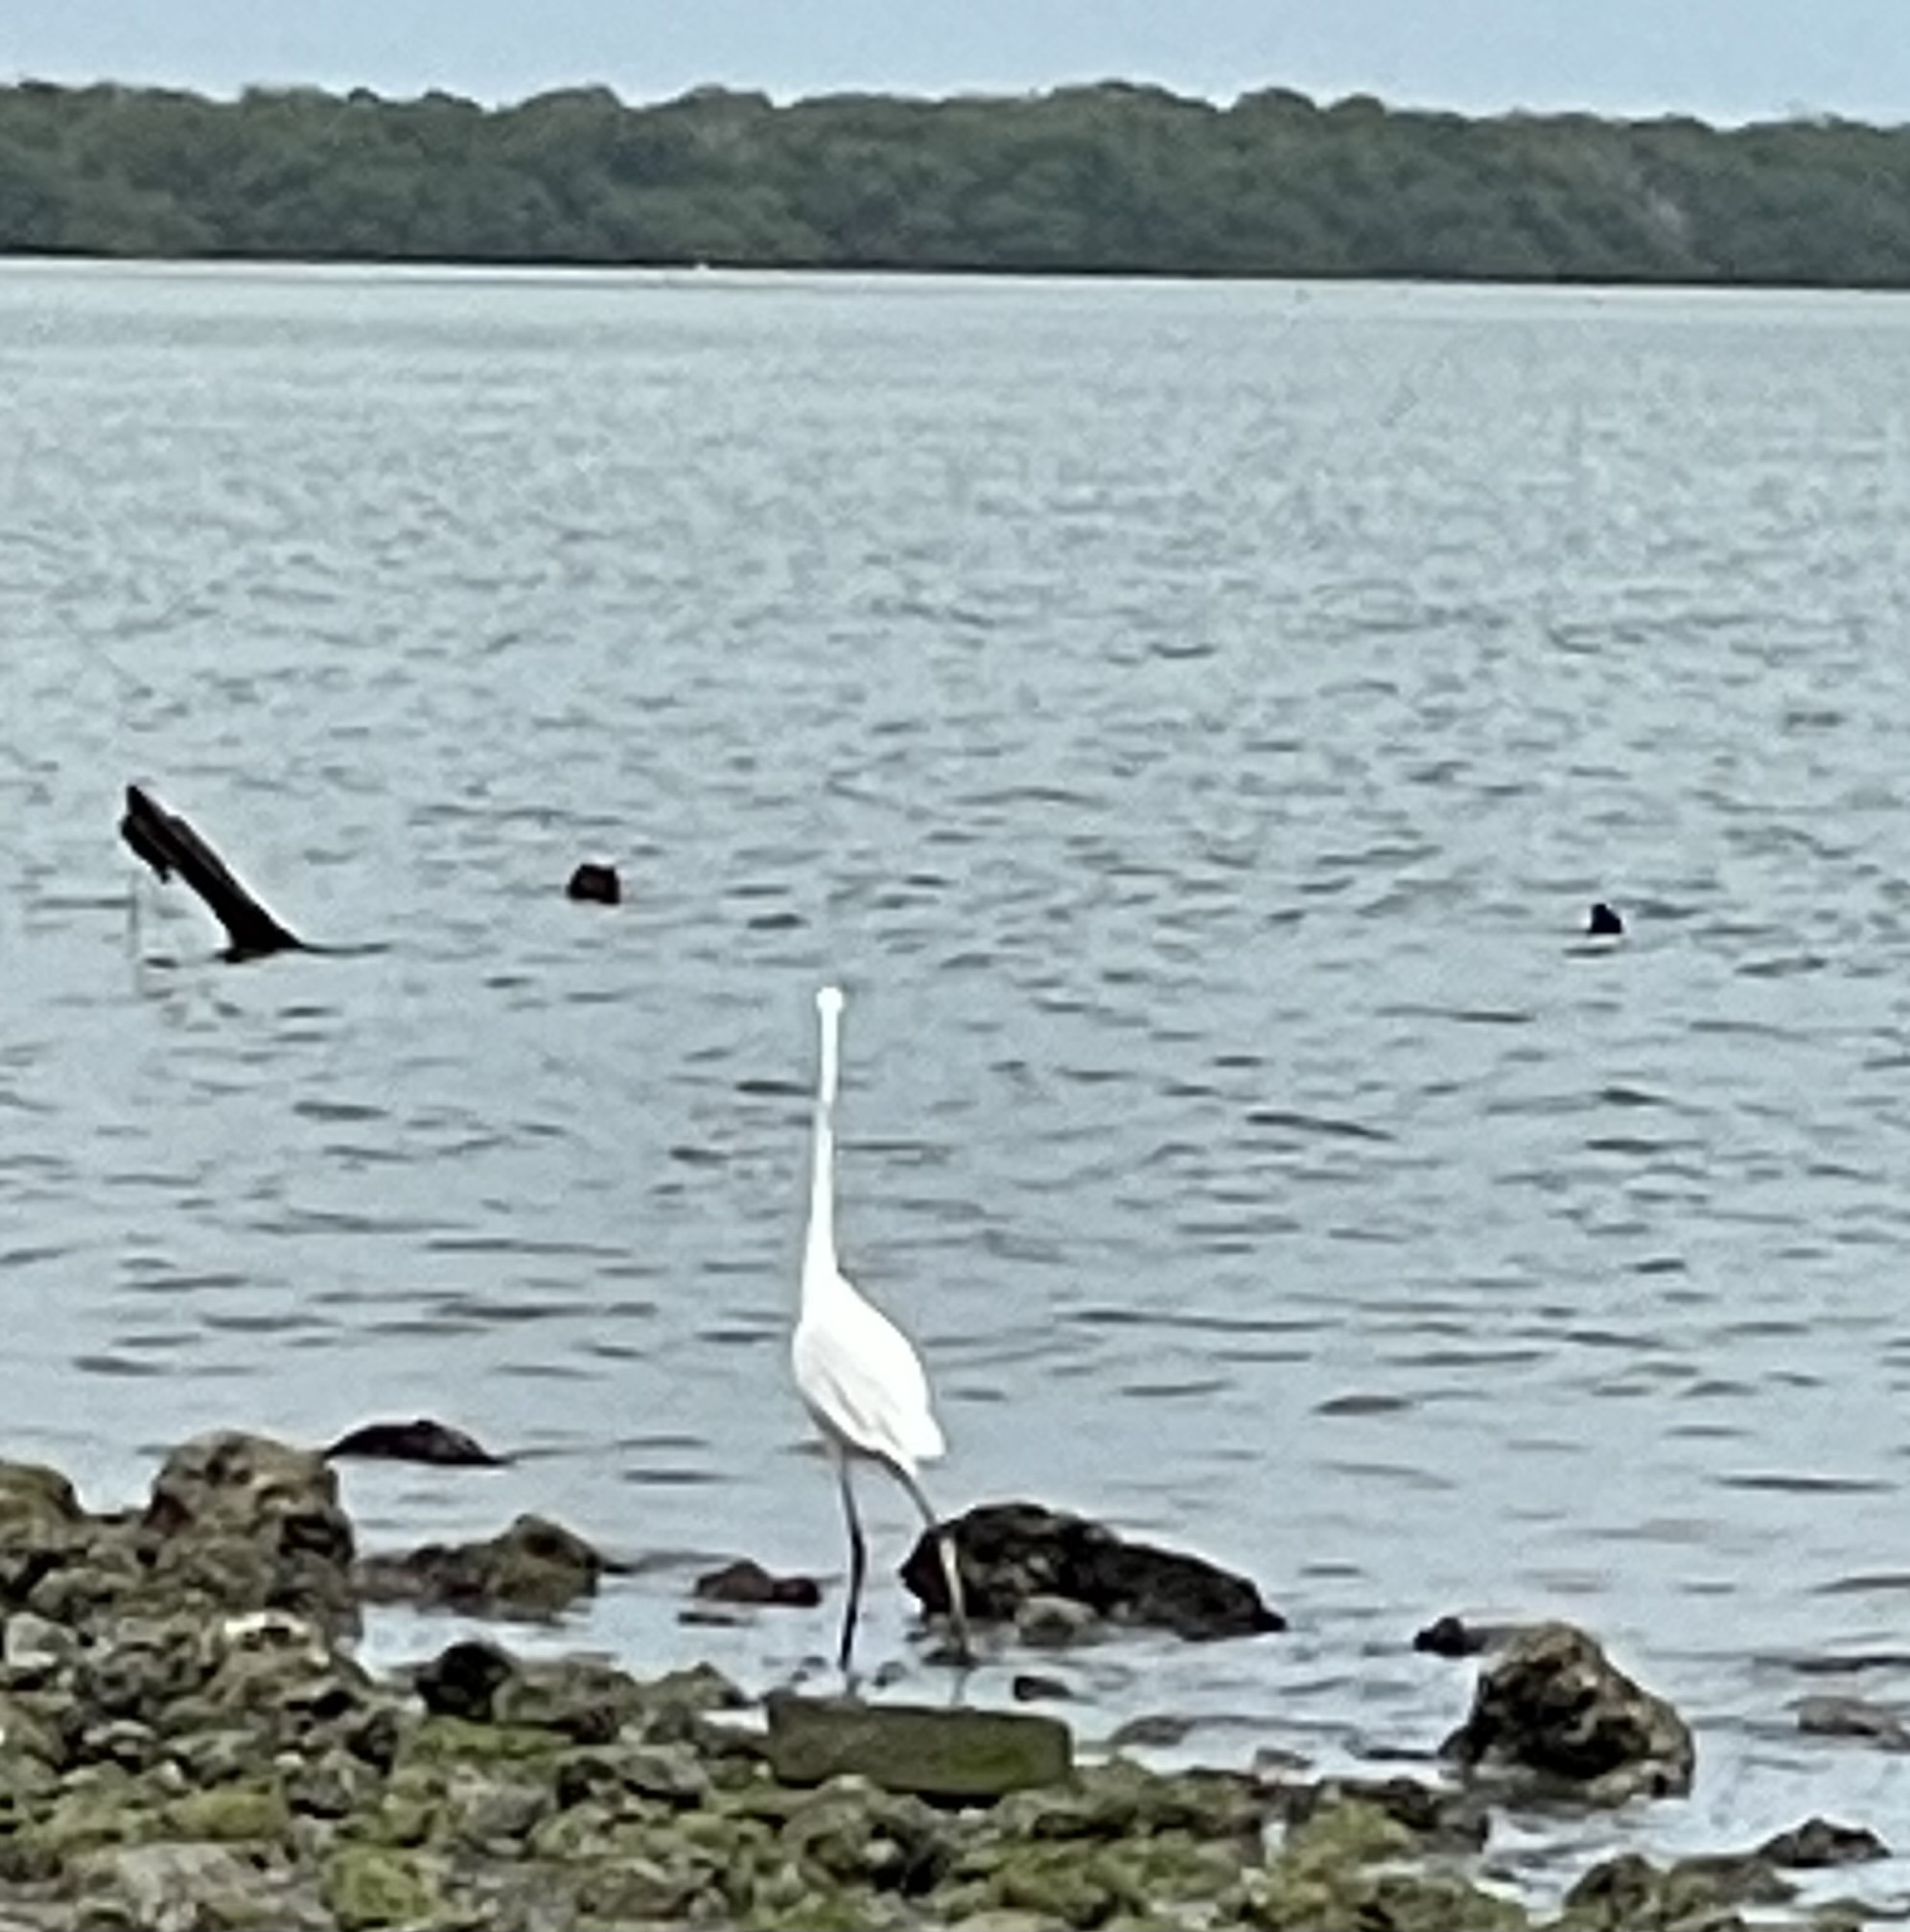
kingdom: Animalia
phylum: Chordata
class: Aves
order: Pelecaniformes
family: Ardeidae
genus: Ardea
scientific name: Ardea alba
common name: Great egret
